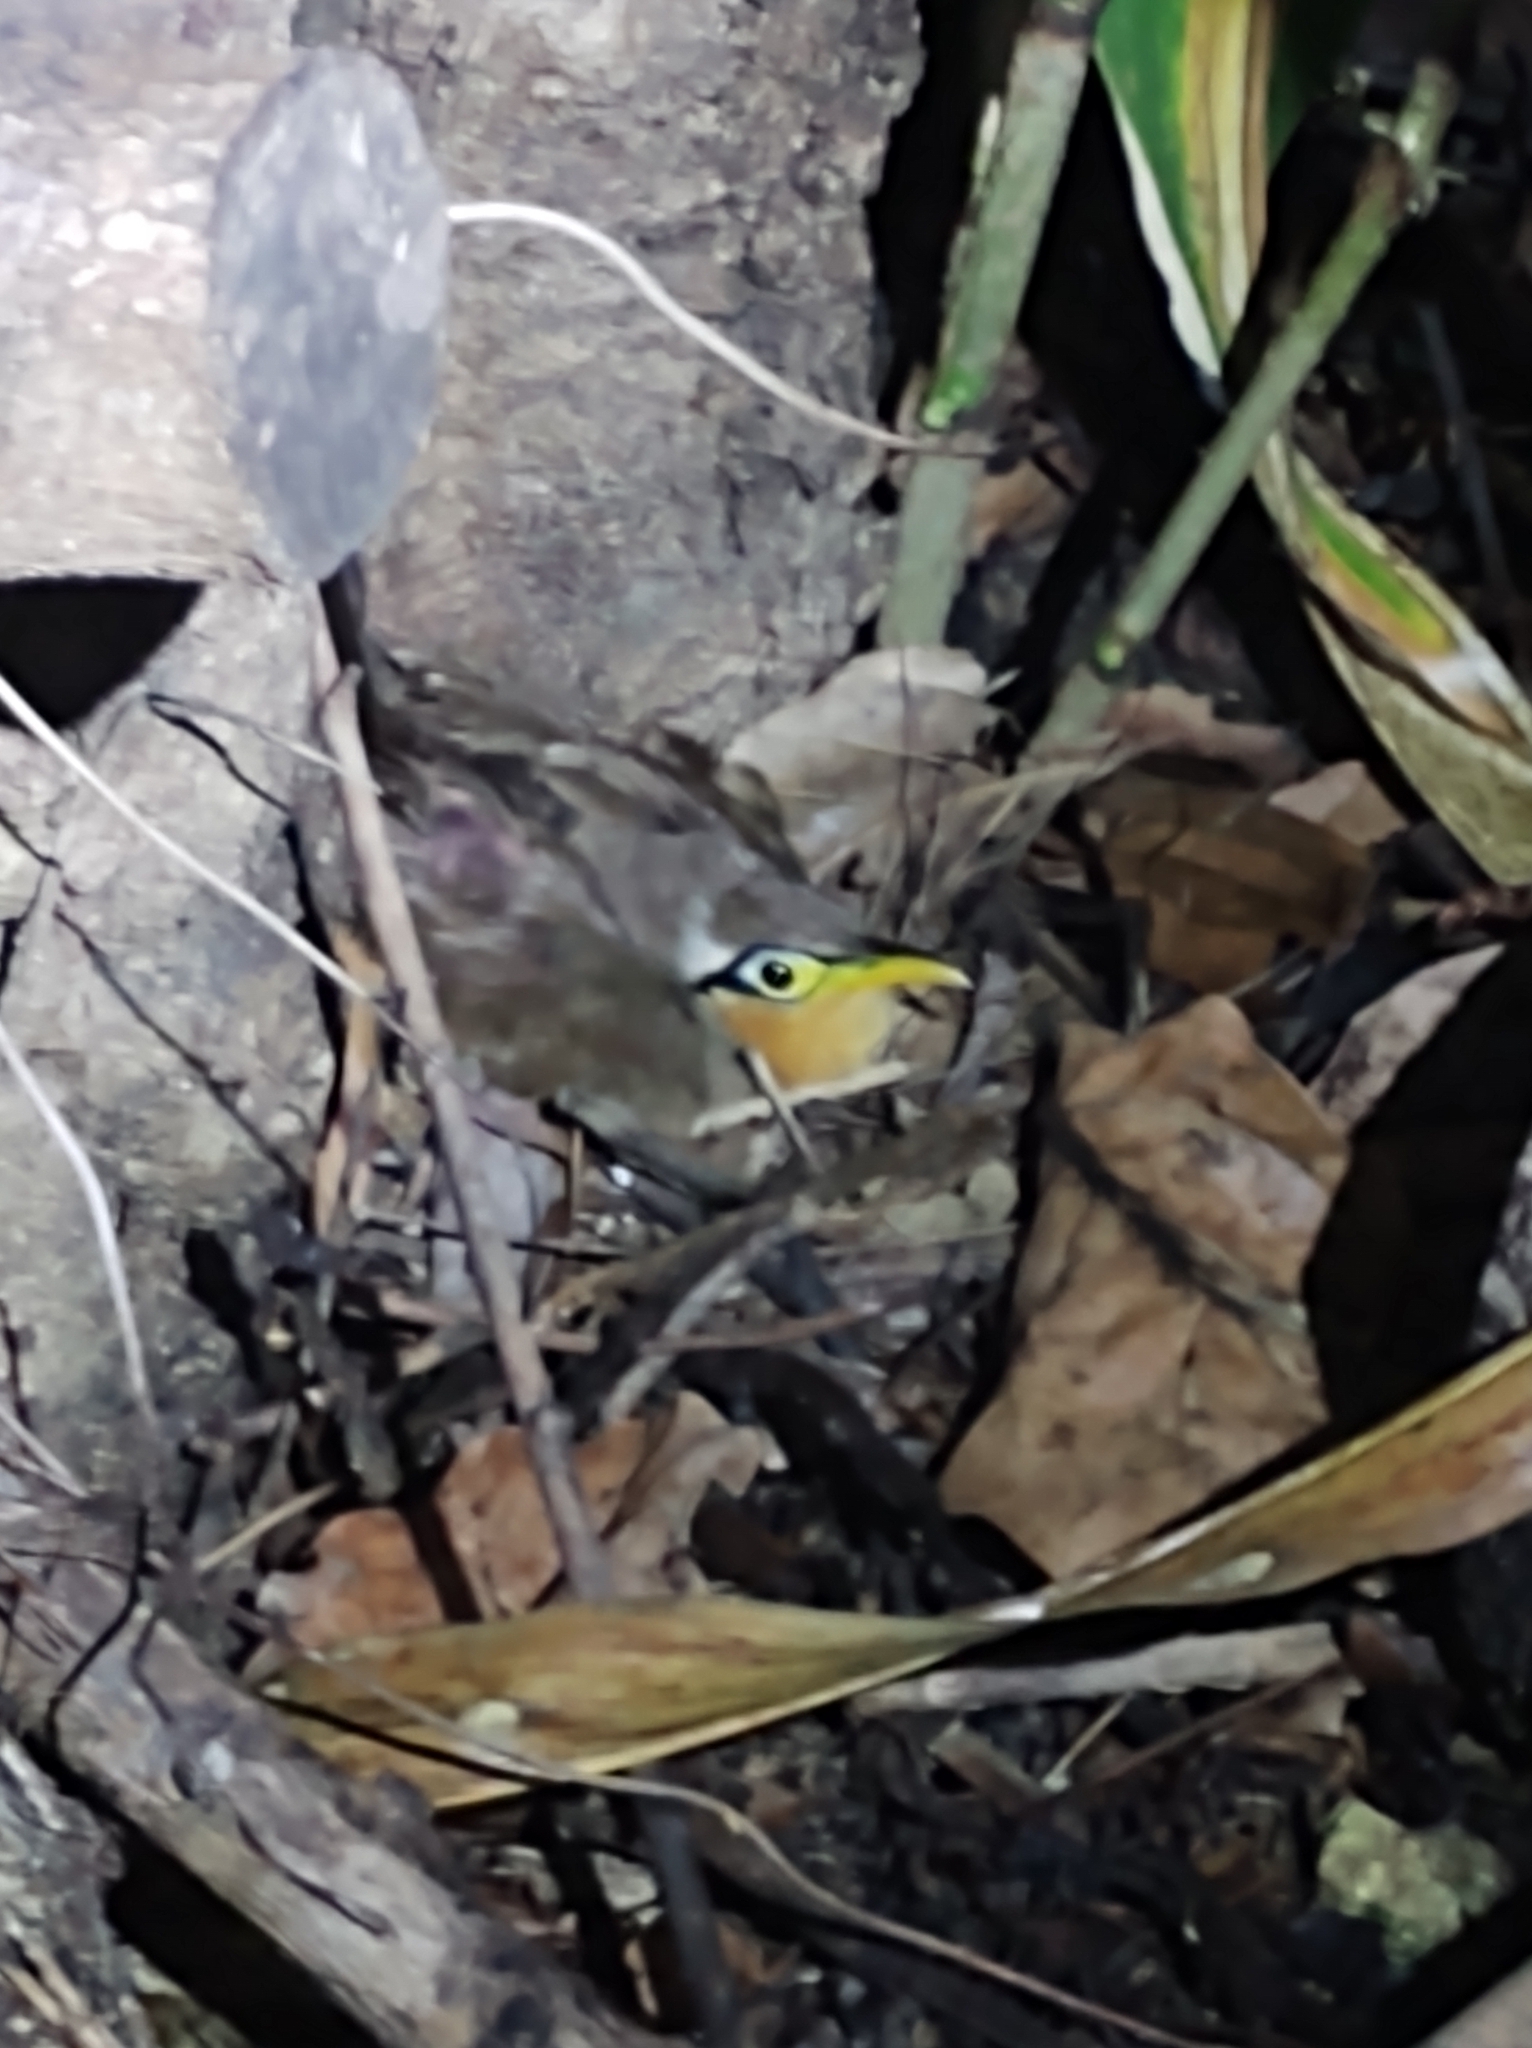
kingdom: Animalia
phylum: Chordata
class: Aves
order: Cuculiformes
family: Cuculidae
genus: Morococcyx
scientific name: Morococcyx erythropygus
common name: Lesser ground-cuckoo
